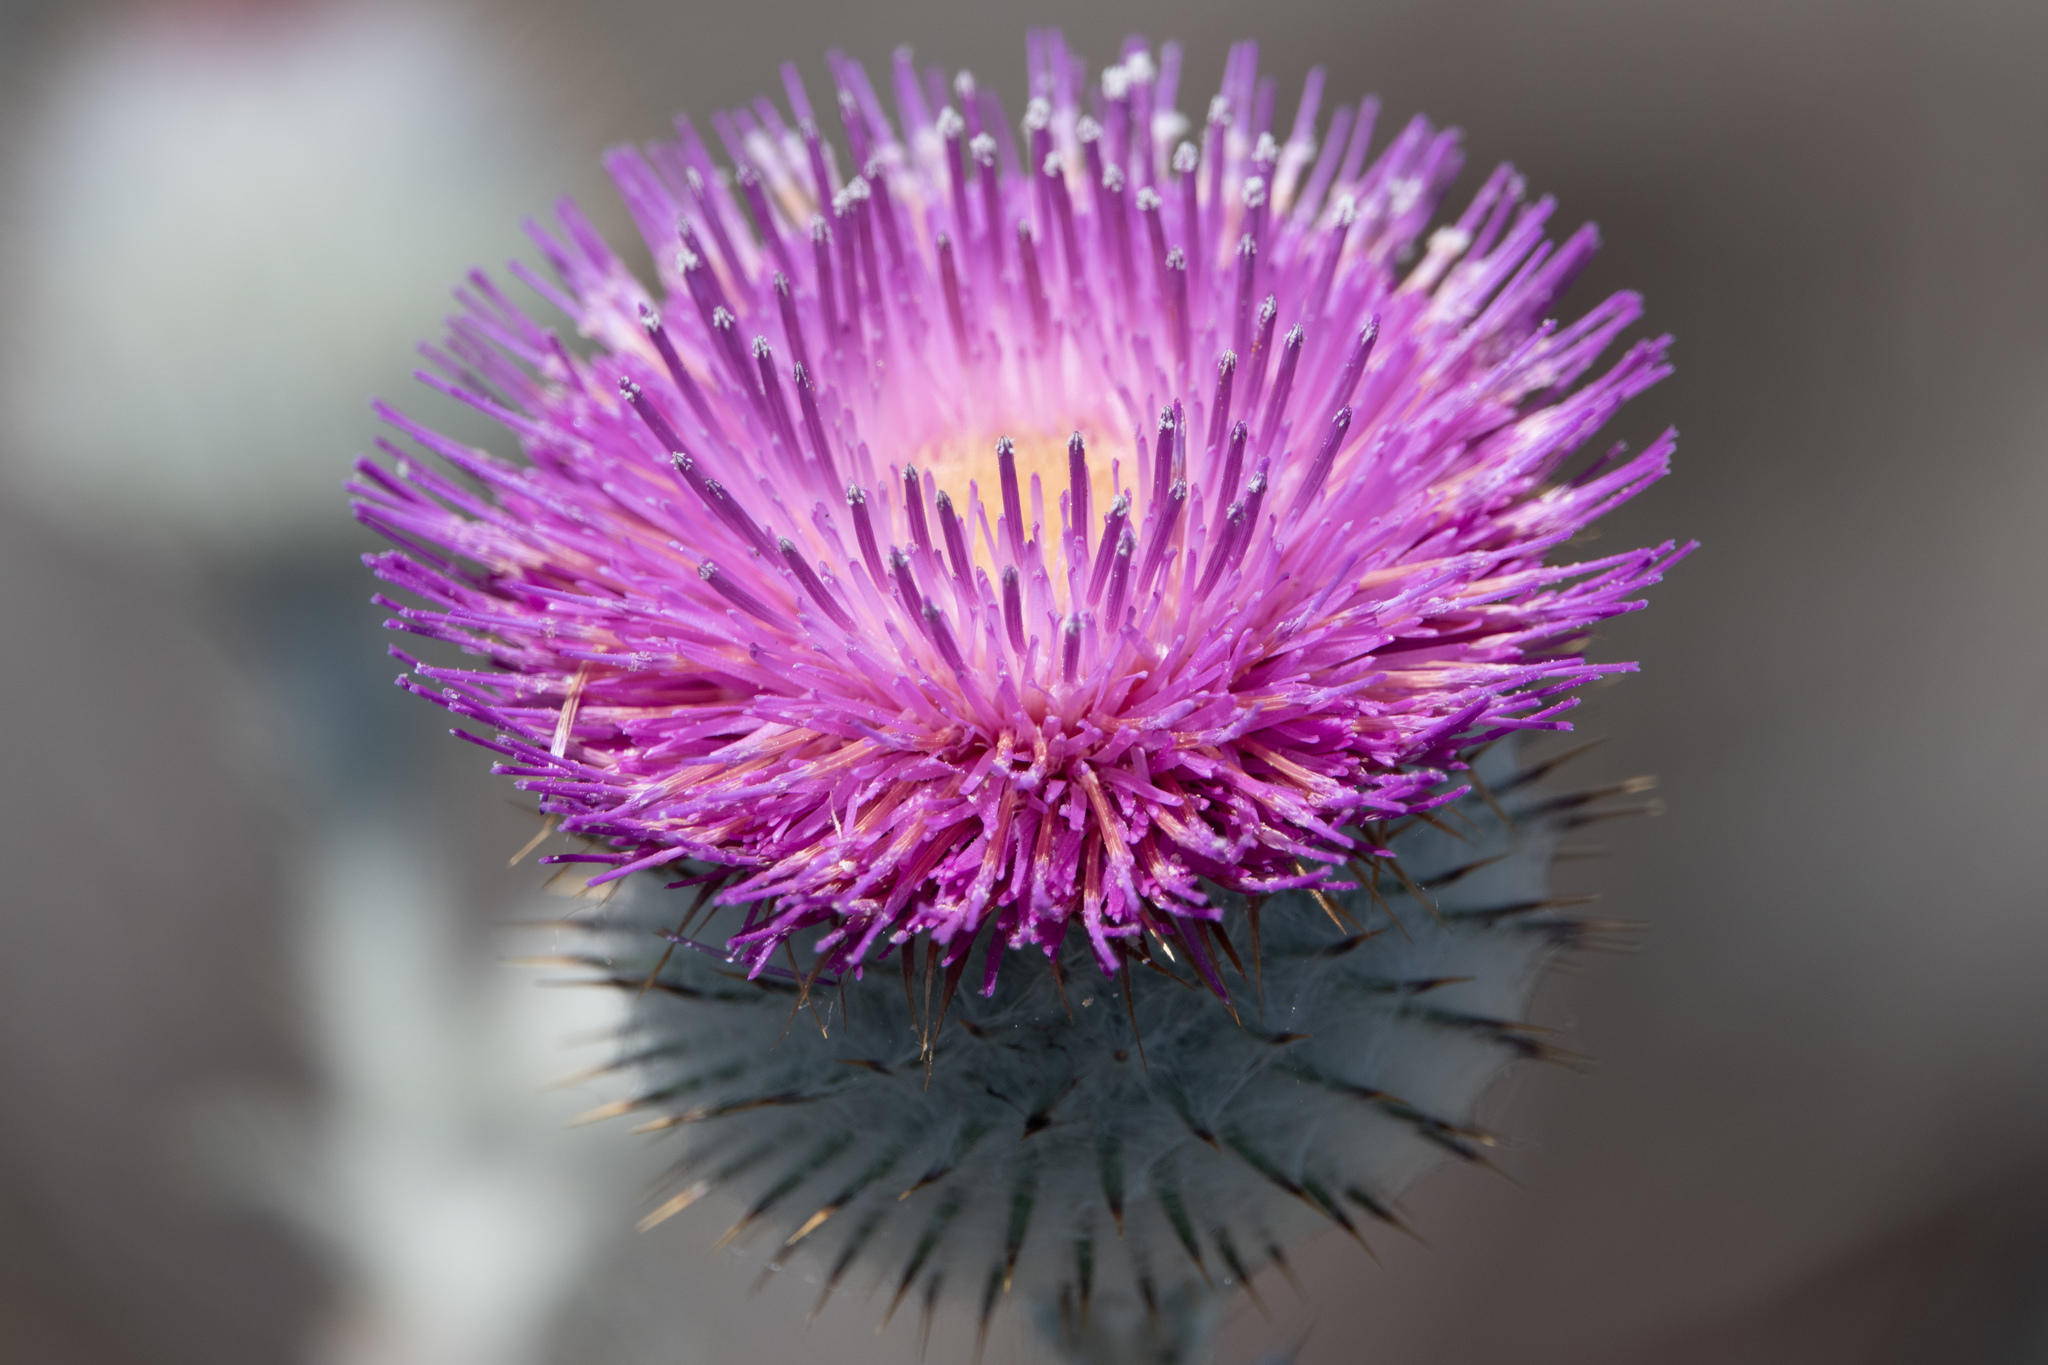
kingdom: Plantae
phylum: Tracheophyta
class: Magnoliopsida
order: Asterales
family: Asteraceae
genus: Cirsium
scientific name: Cirsium occidentale
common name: Western thistle
